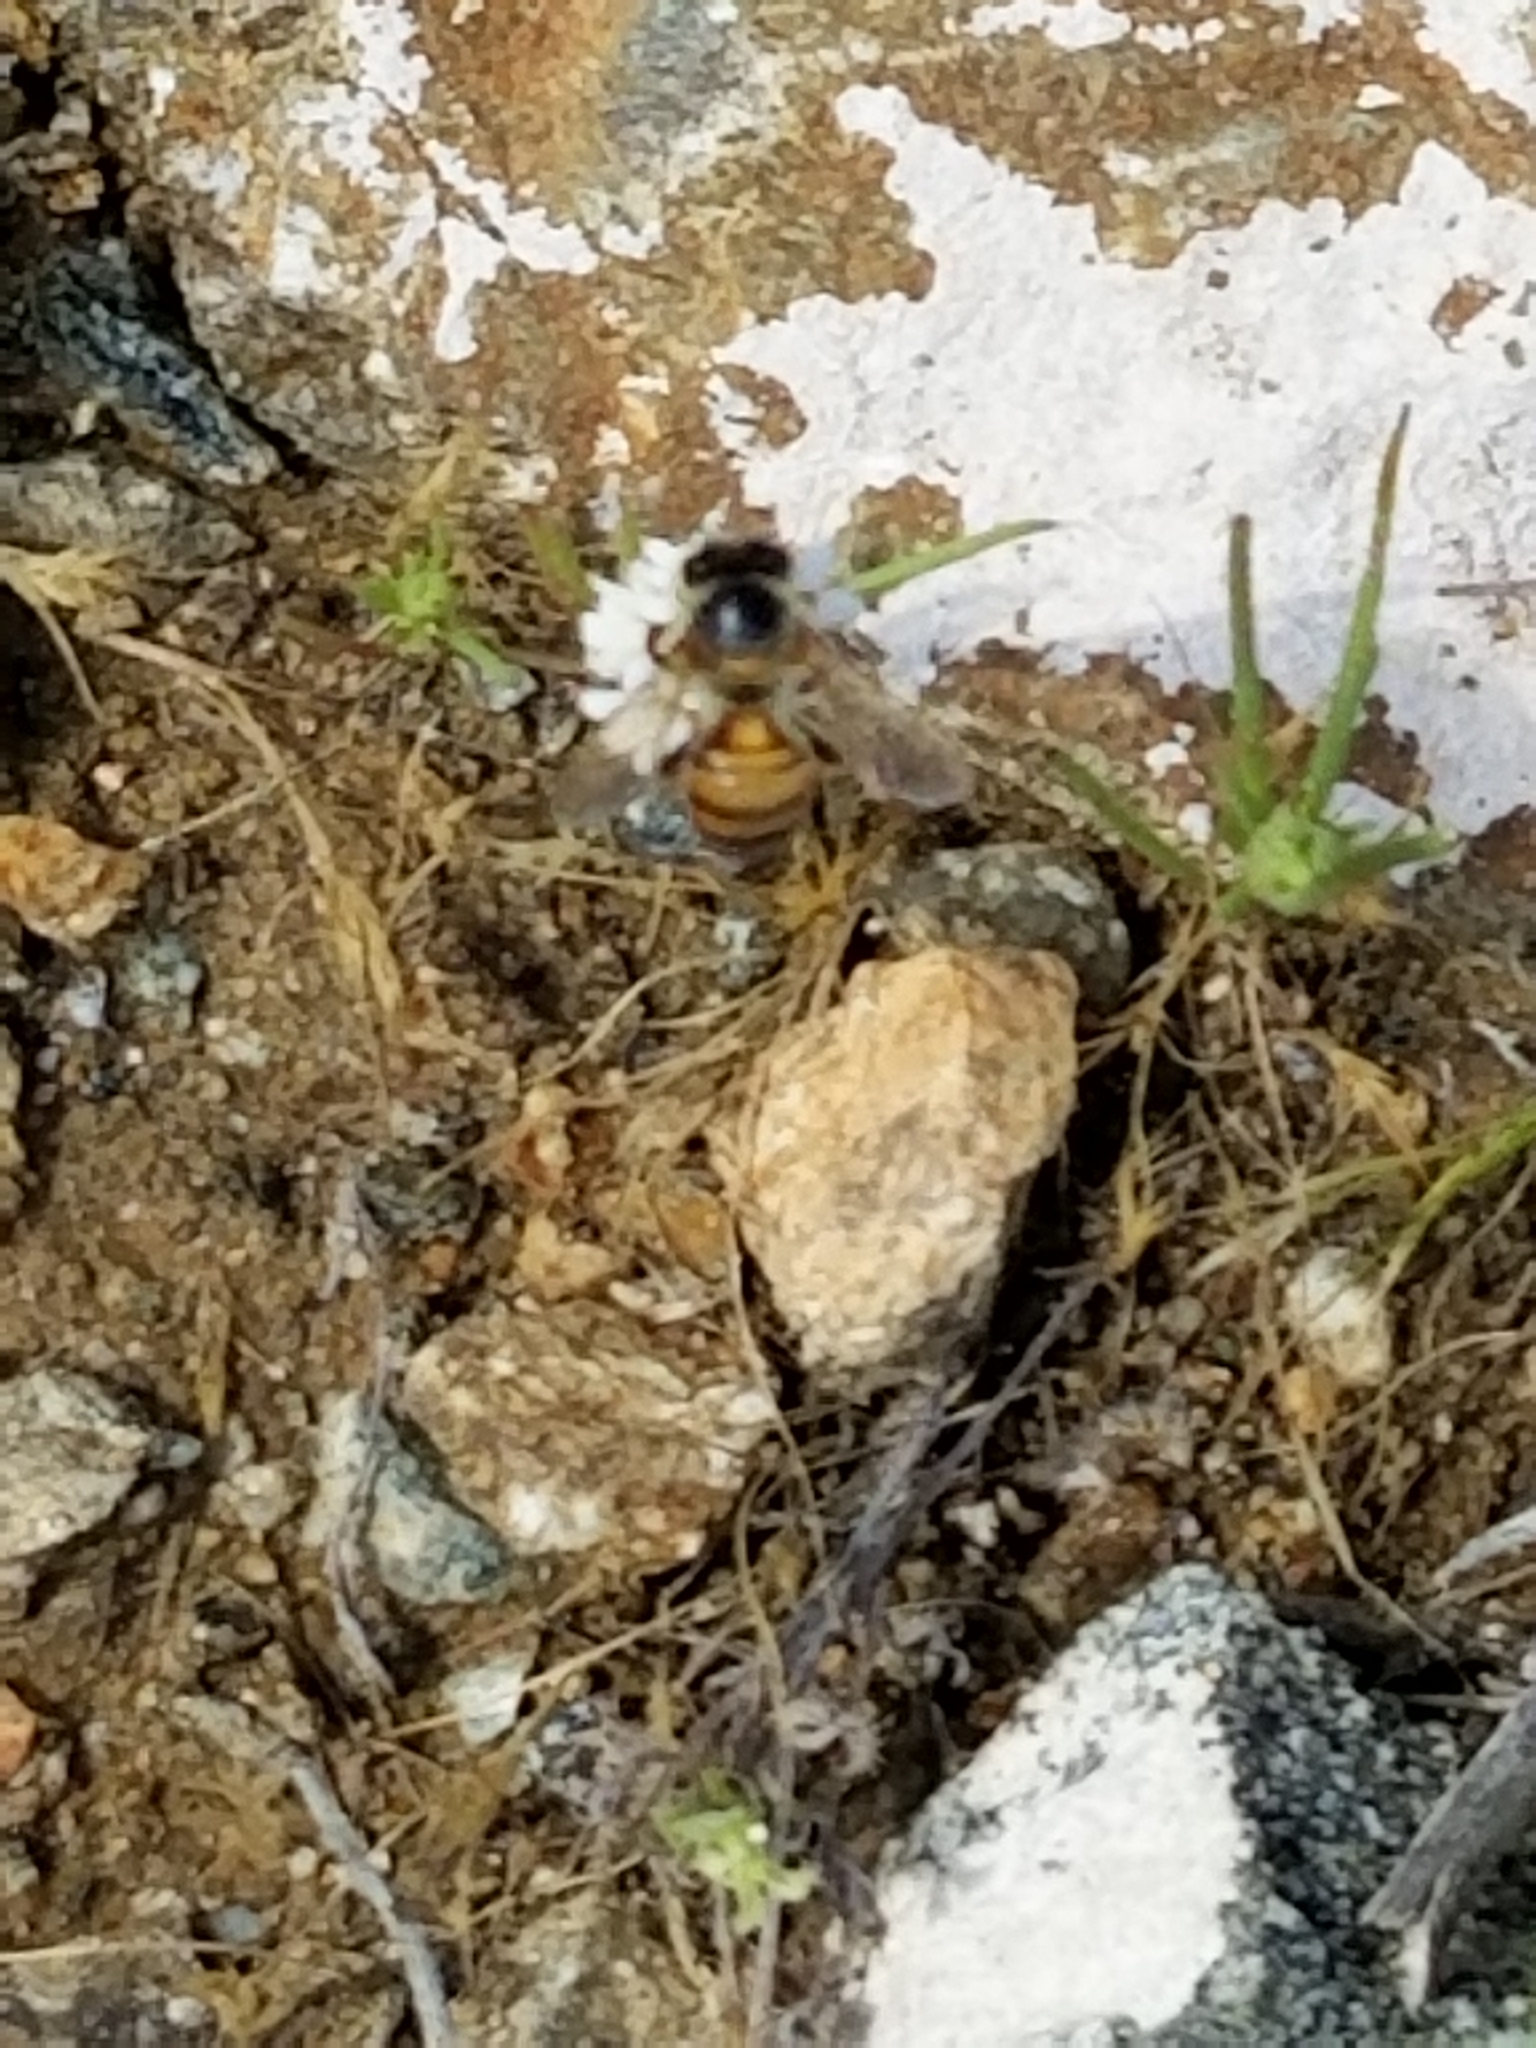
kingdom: Animalia
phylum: Arthropoda
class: Insecta
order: Hymenoptera
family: Apidae
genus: Apis
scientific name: Apis mellifera
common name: Honey bee
